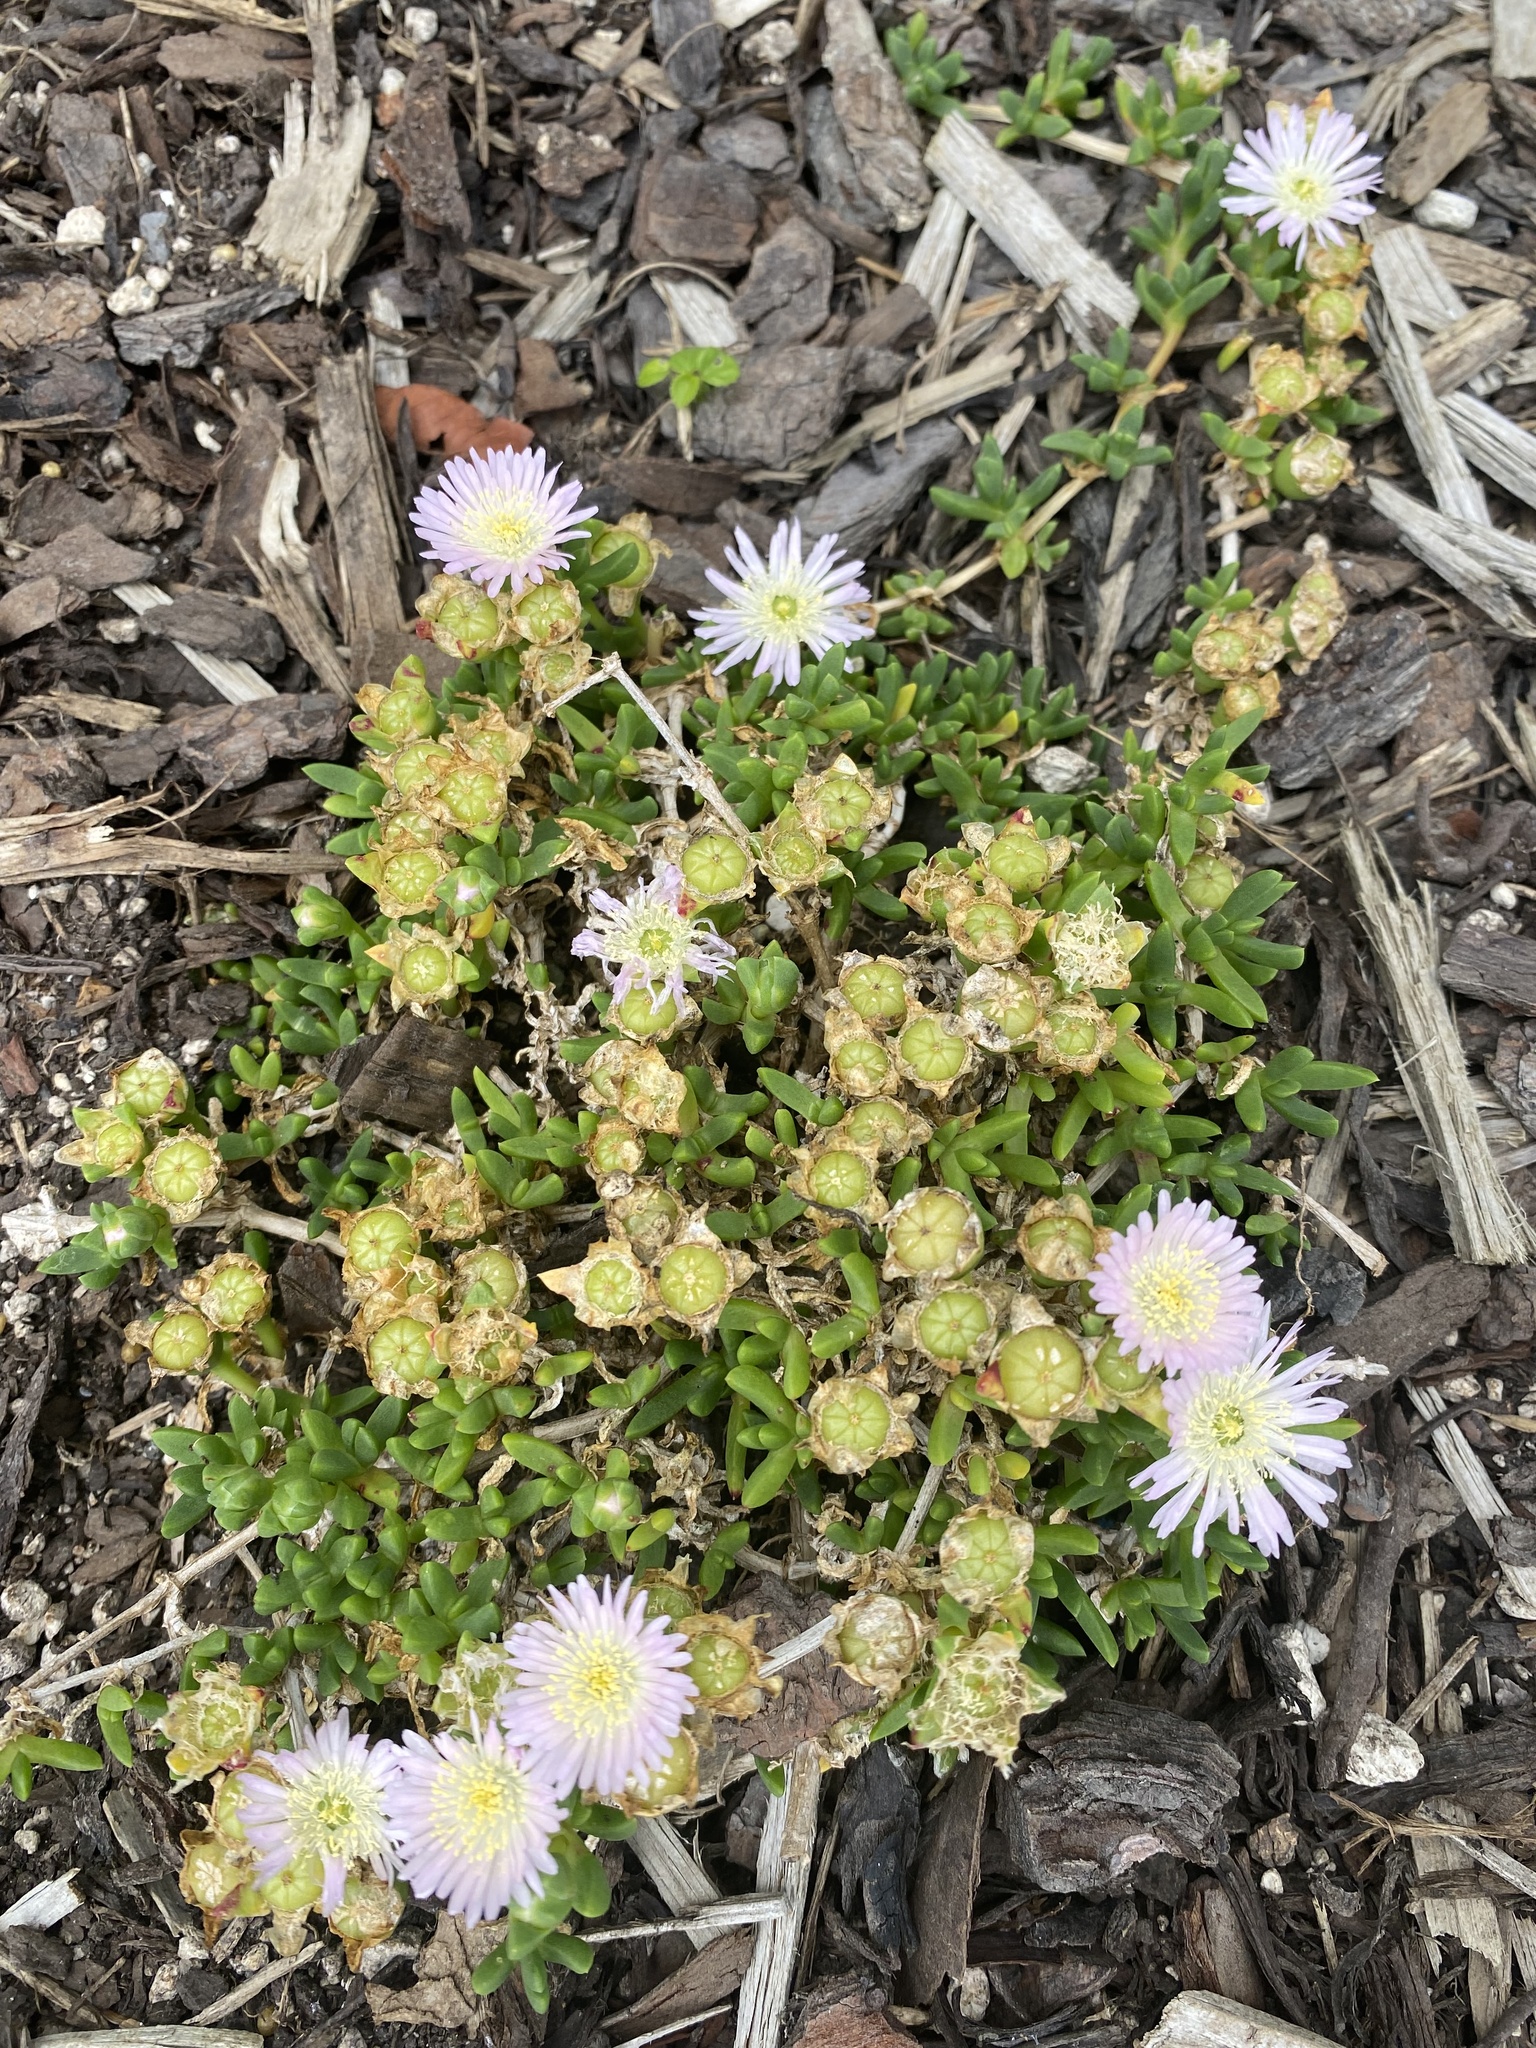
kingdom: Plantae
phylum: Tracheophyta
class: Magnoliopsida
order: Caryophyllales
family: Aizoaceae
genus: Disphyma
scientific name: Disphyma australe
